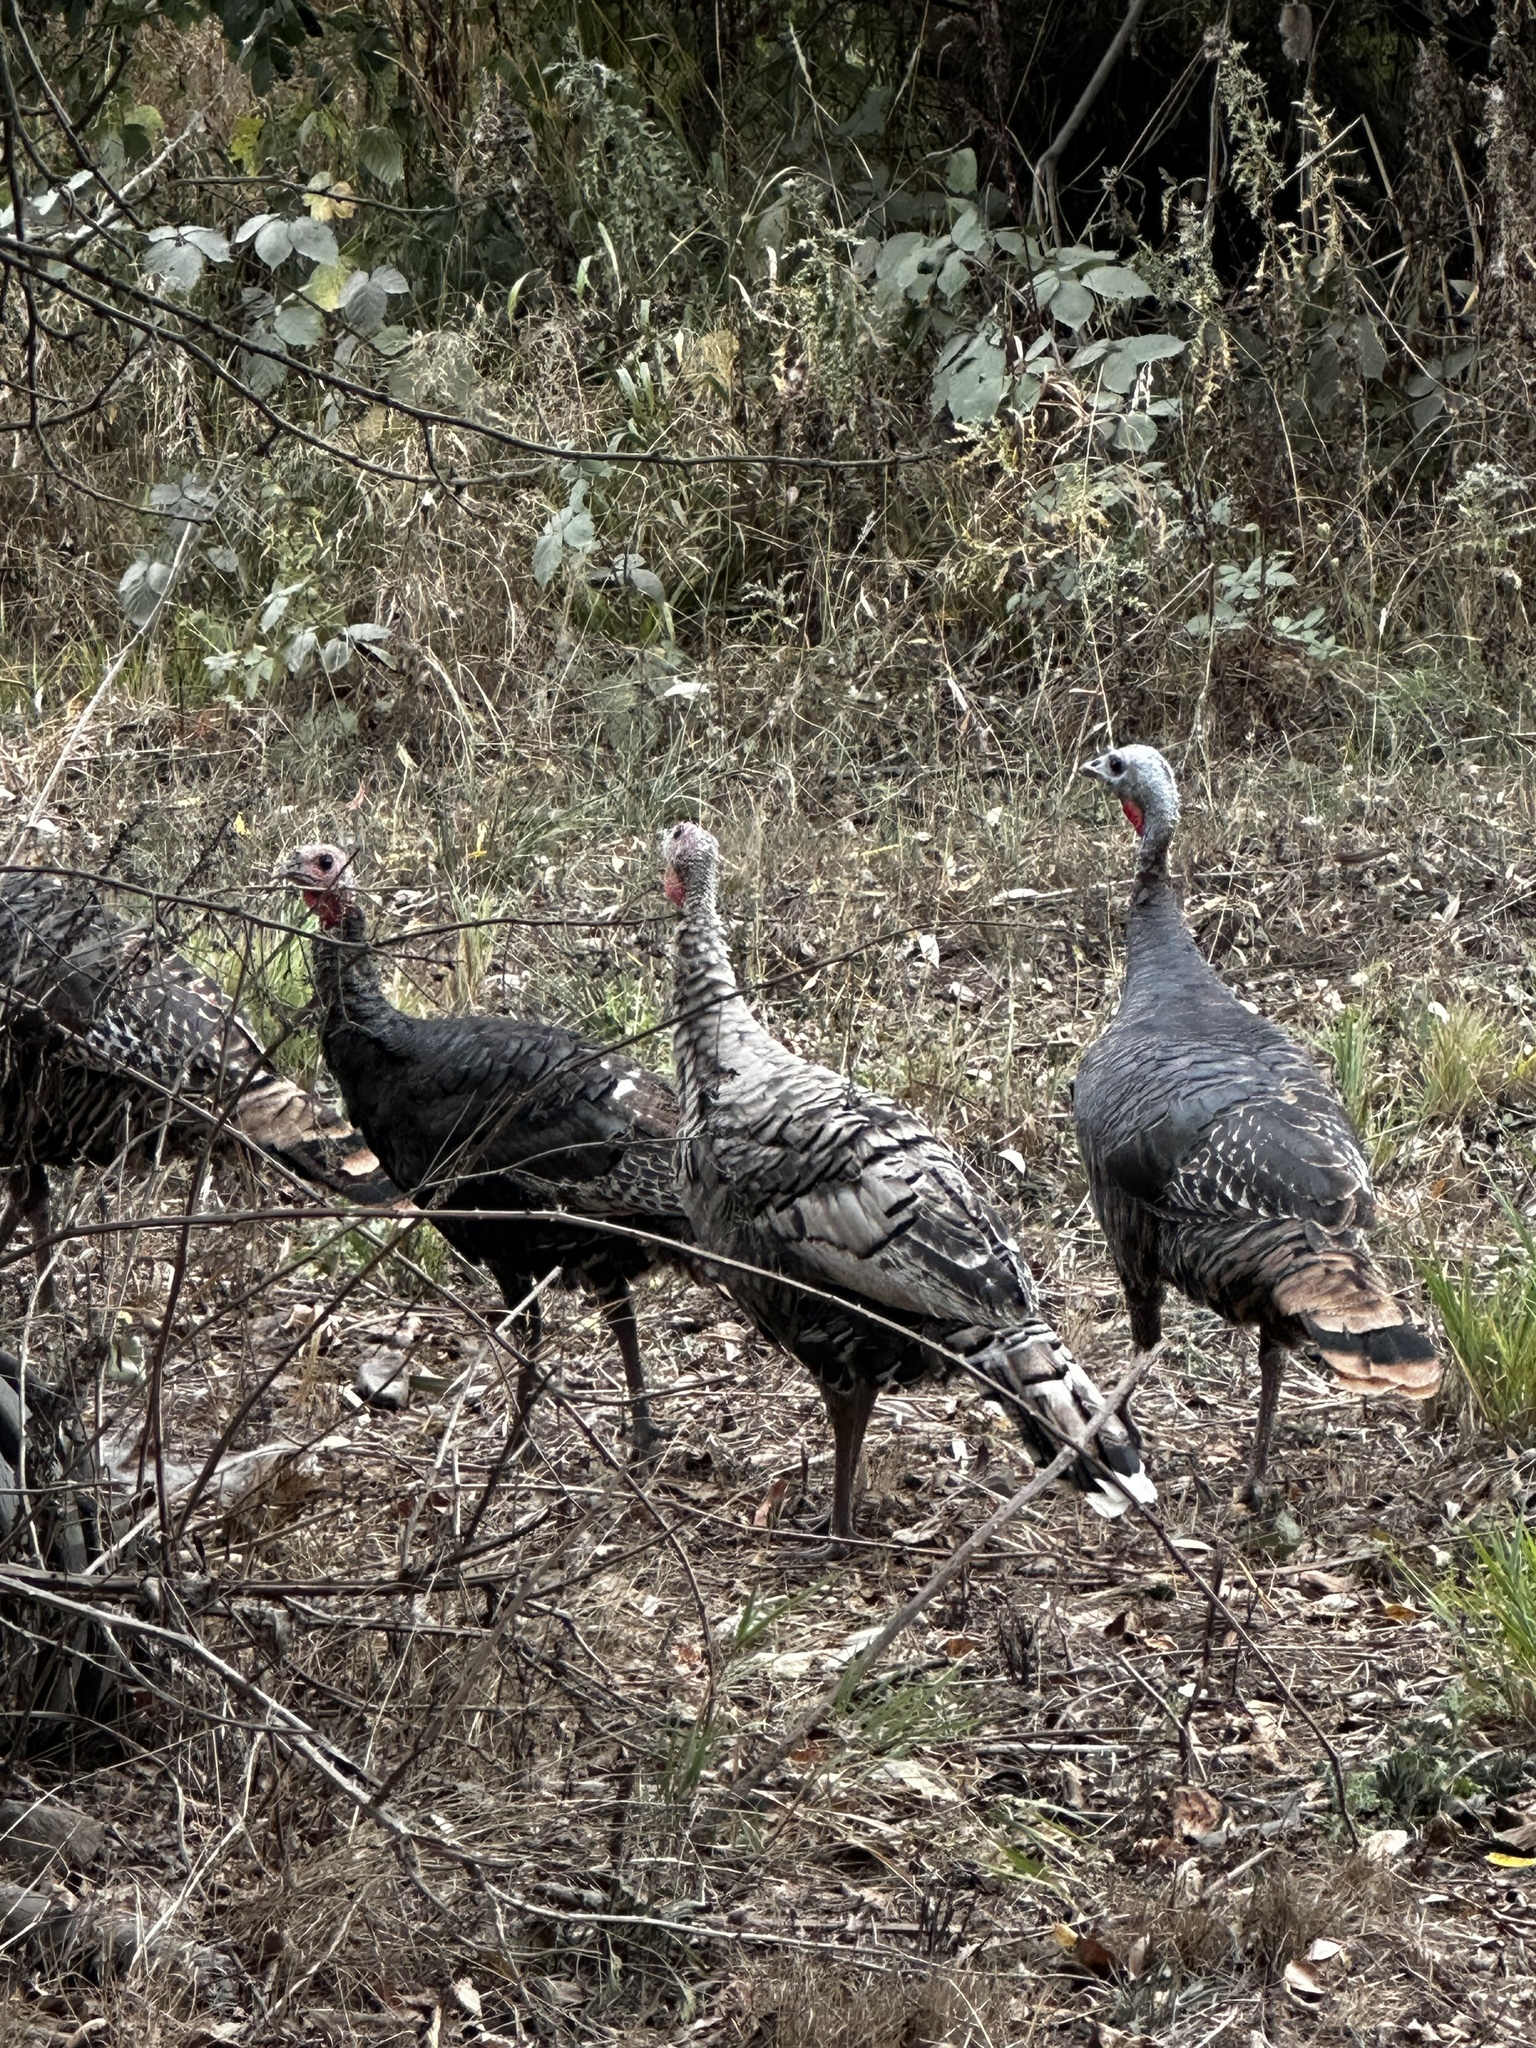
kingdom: Animalia
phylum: Chordata
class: Aves
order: Galliformes
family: Phasianidae
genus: Meleagris
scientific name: Meleagris gallopavo
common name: Wild turkey
